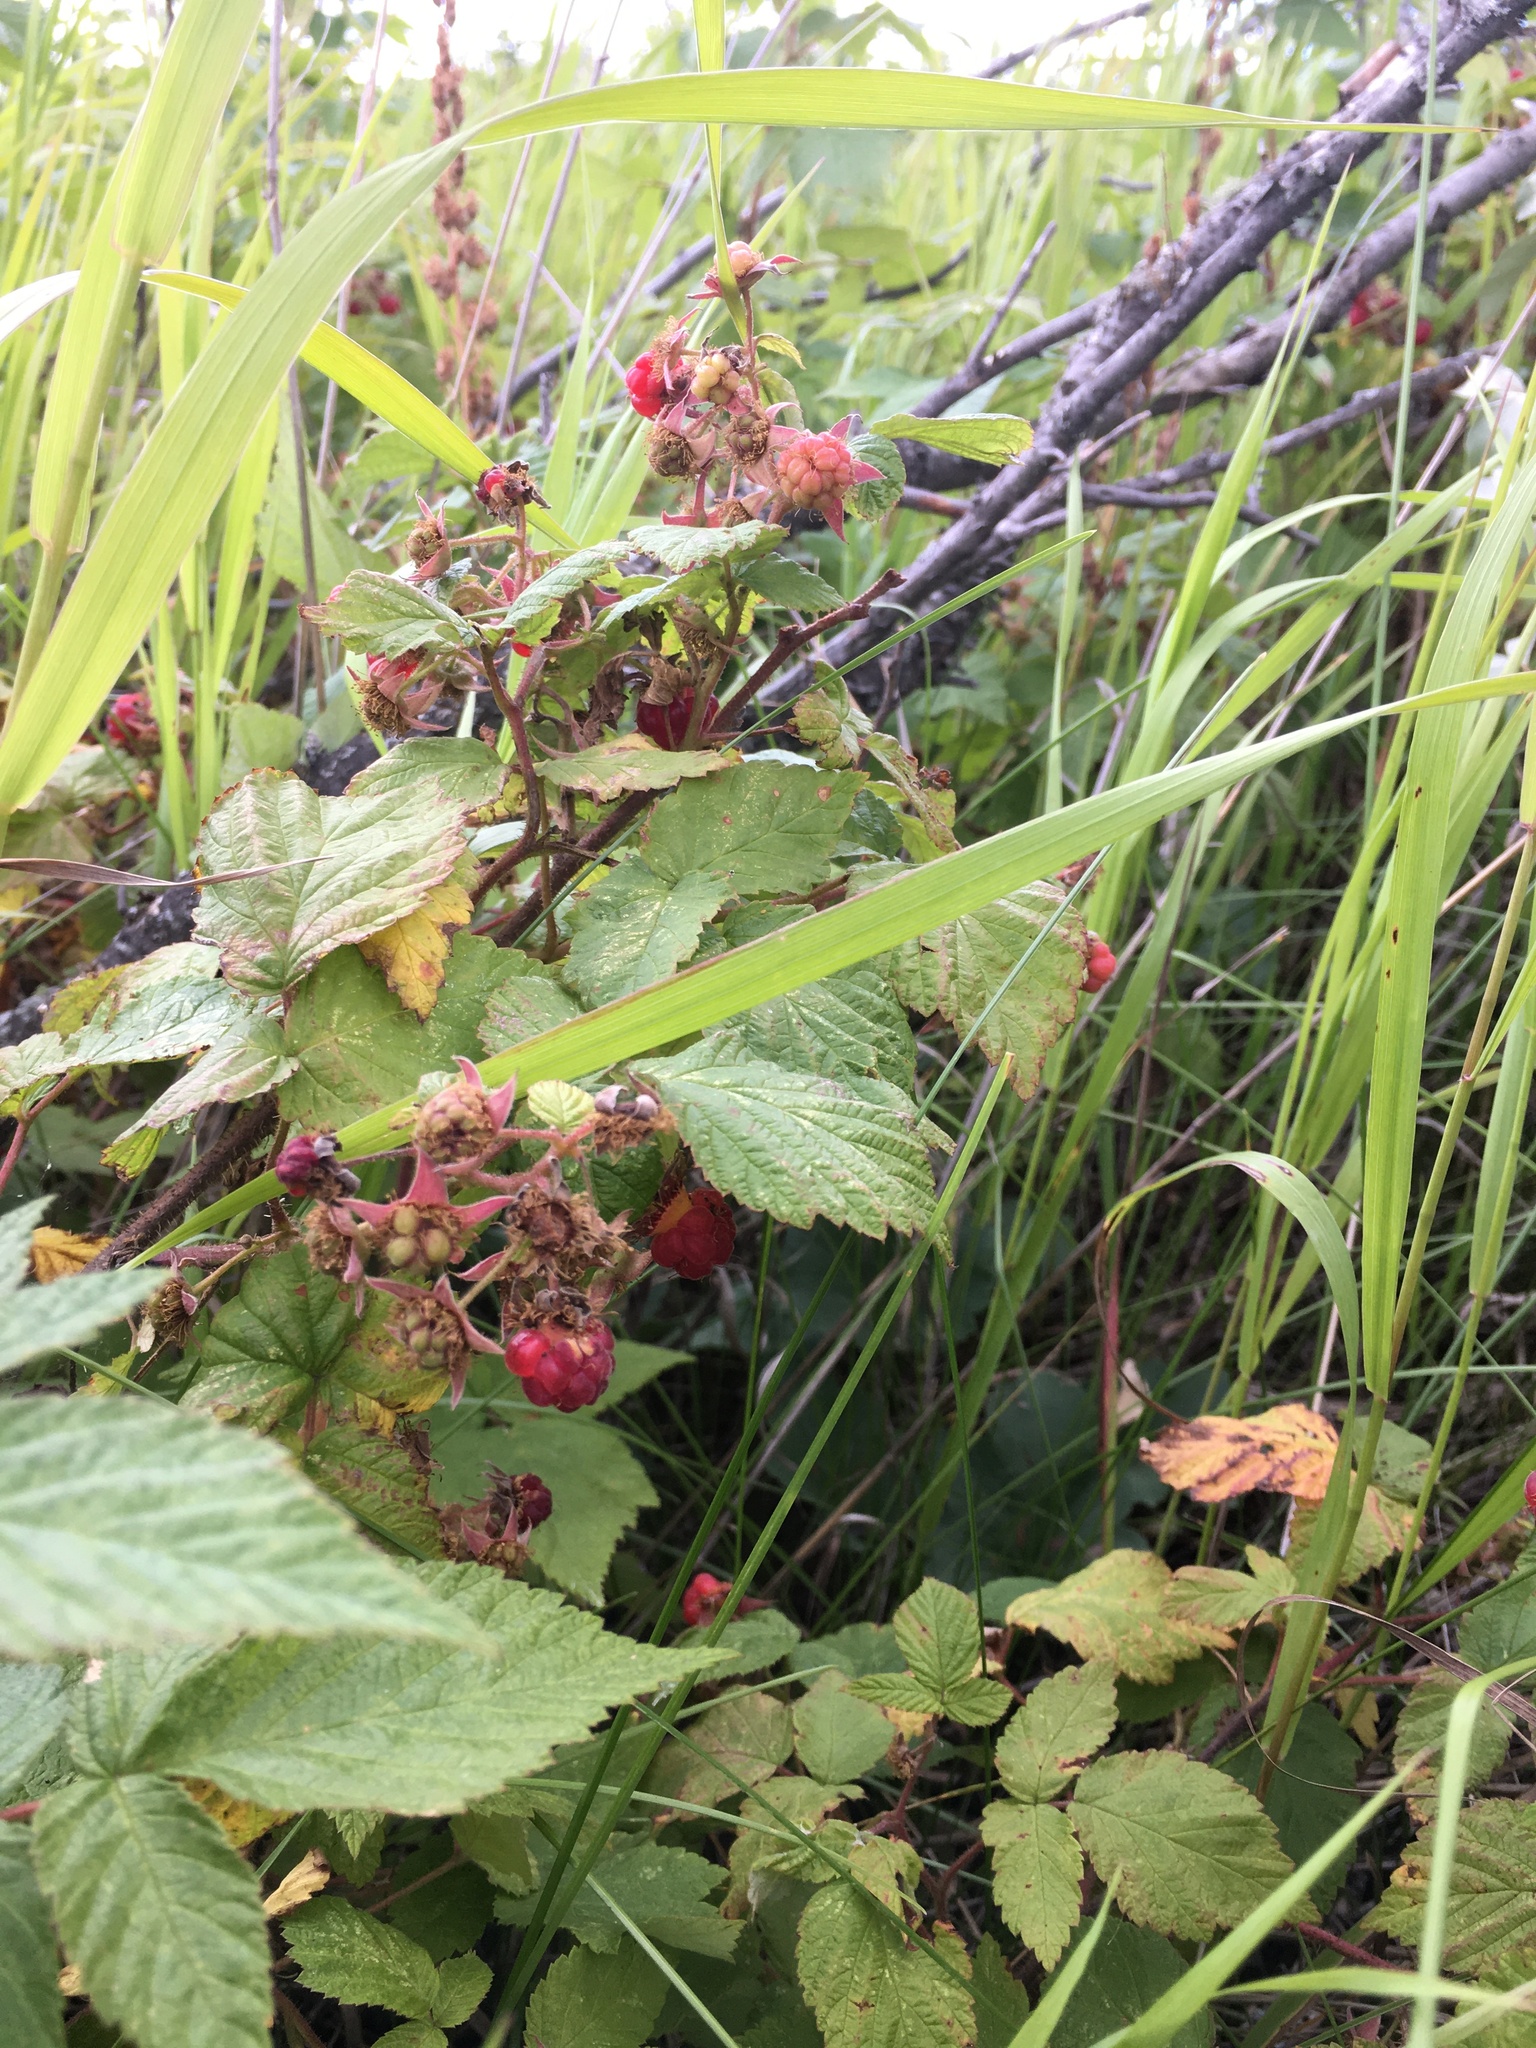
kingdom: Plantae
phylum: Tracheophyta
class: Magnoliopsida
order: Rosales
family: Rosaceae
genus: Rubus
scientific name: Rubus idaeus
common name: Raspberry
